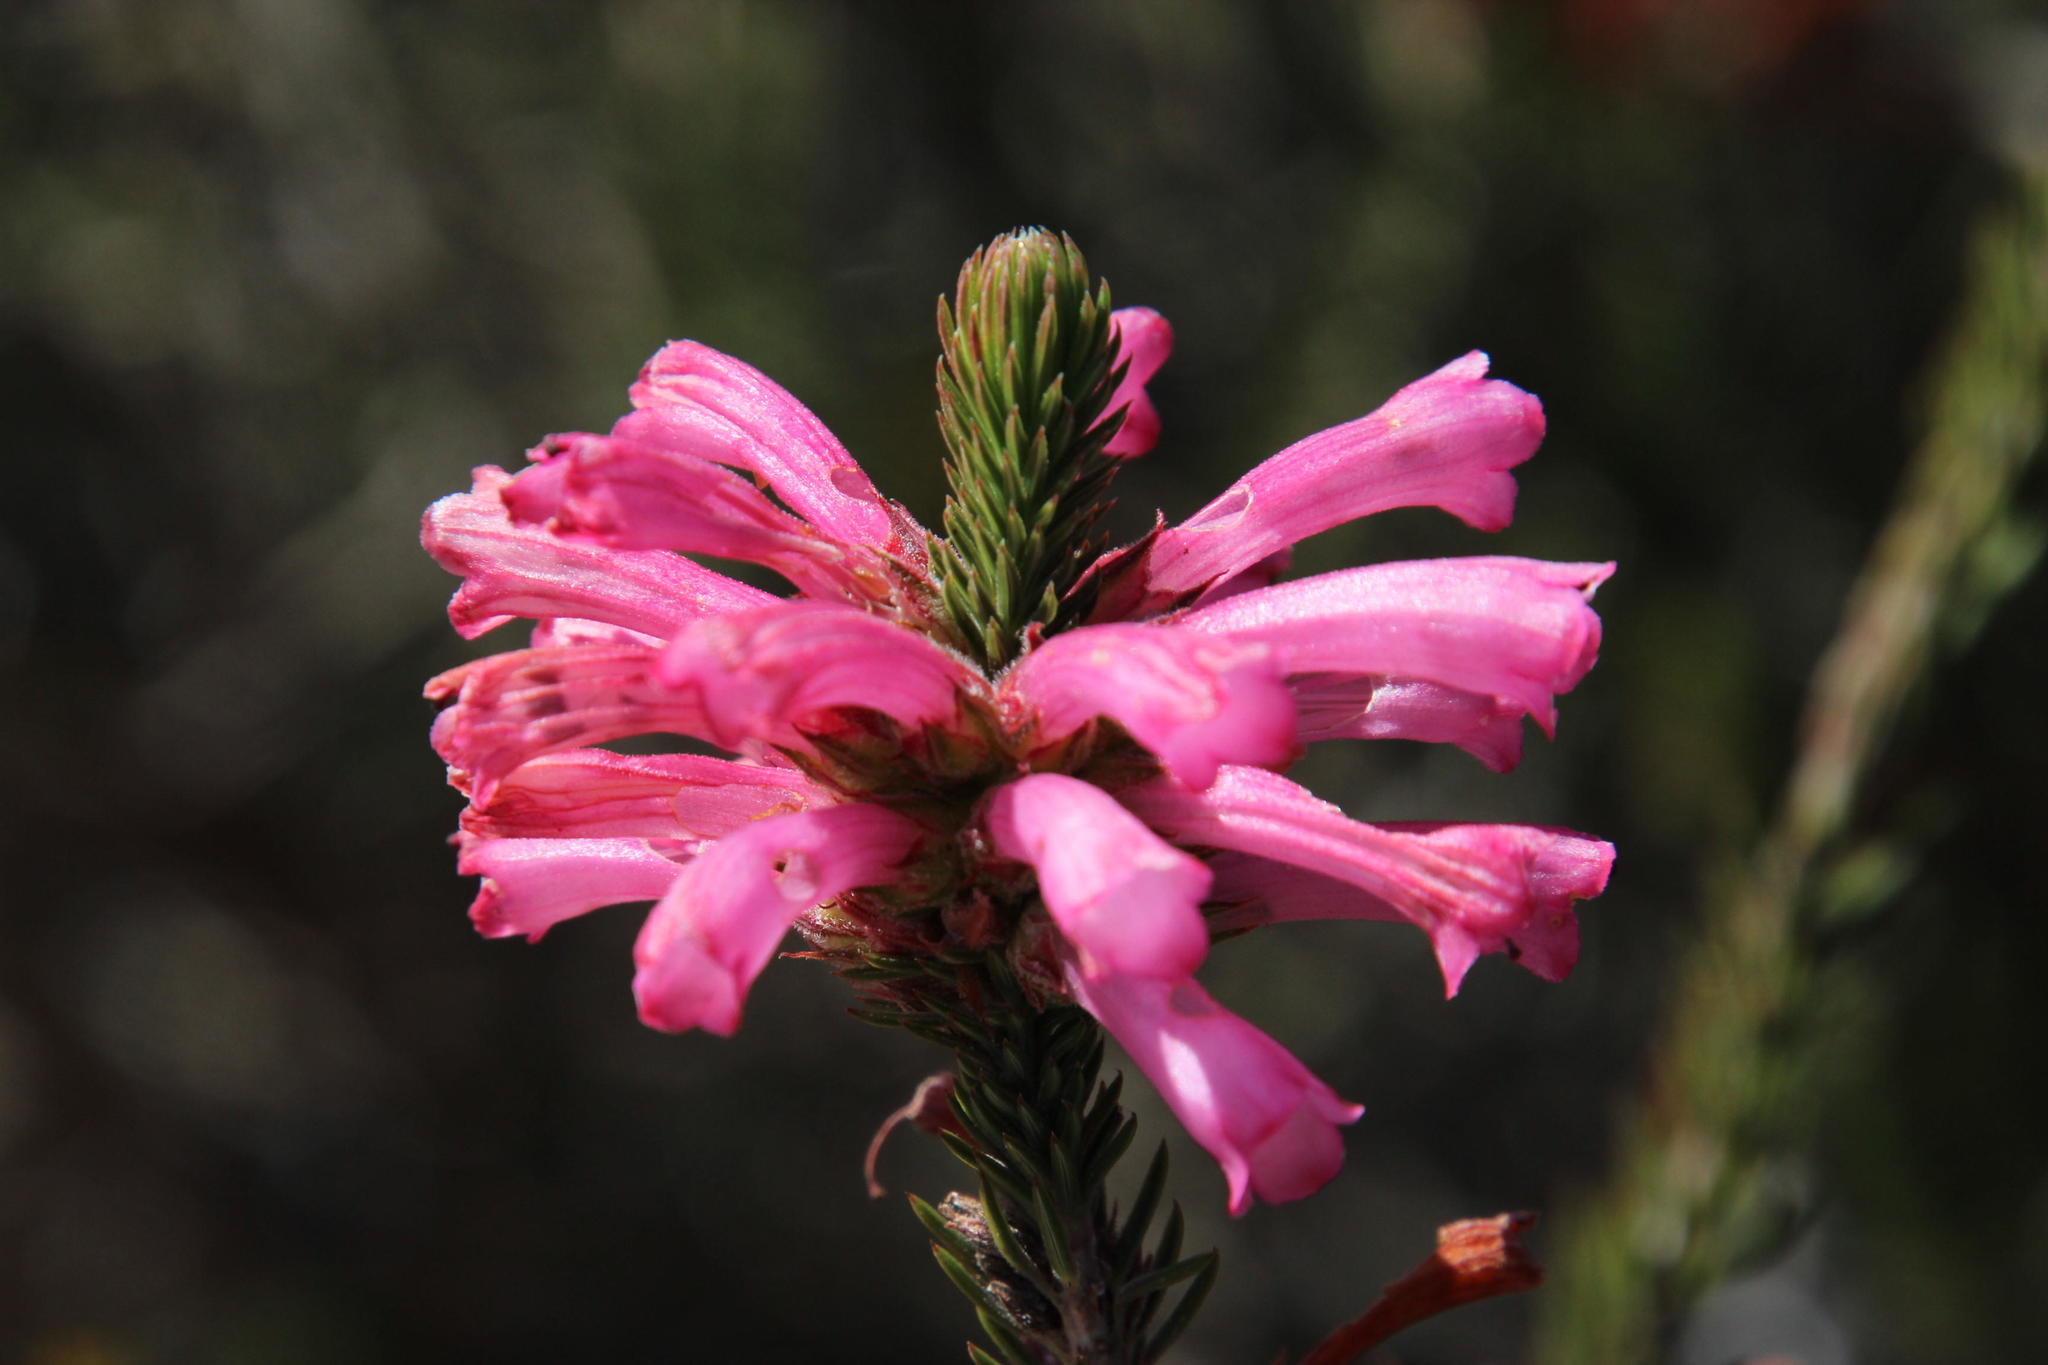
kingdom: Plantae
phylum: Tracheophyta
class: Magnoliopsida
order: Ericales
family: Ericaceae
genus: Erica
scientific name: Erica abietina
